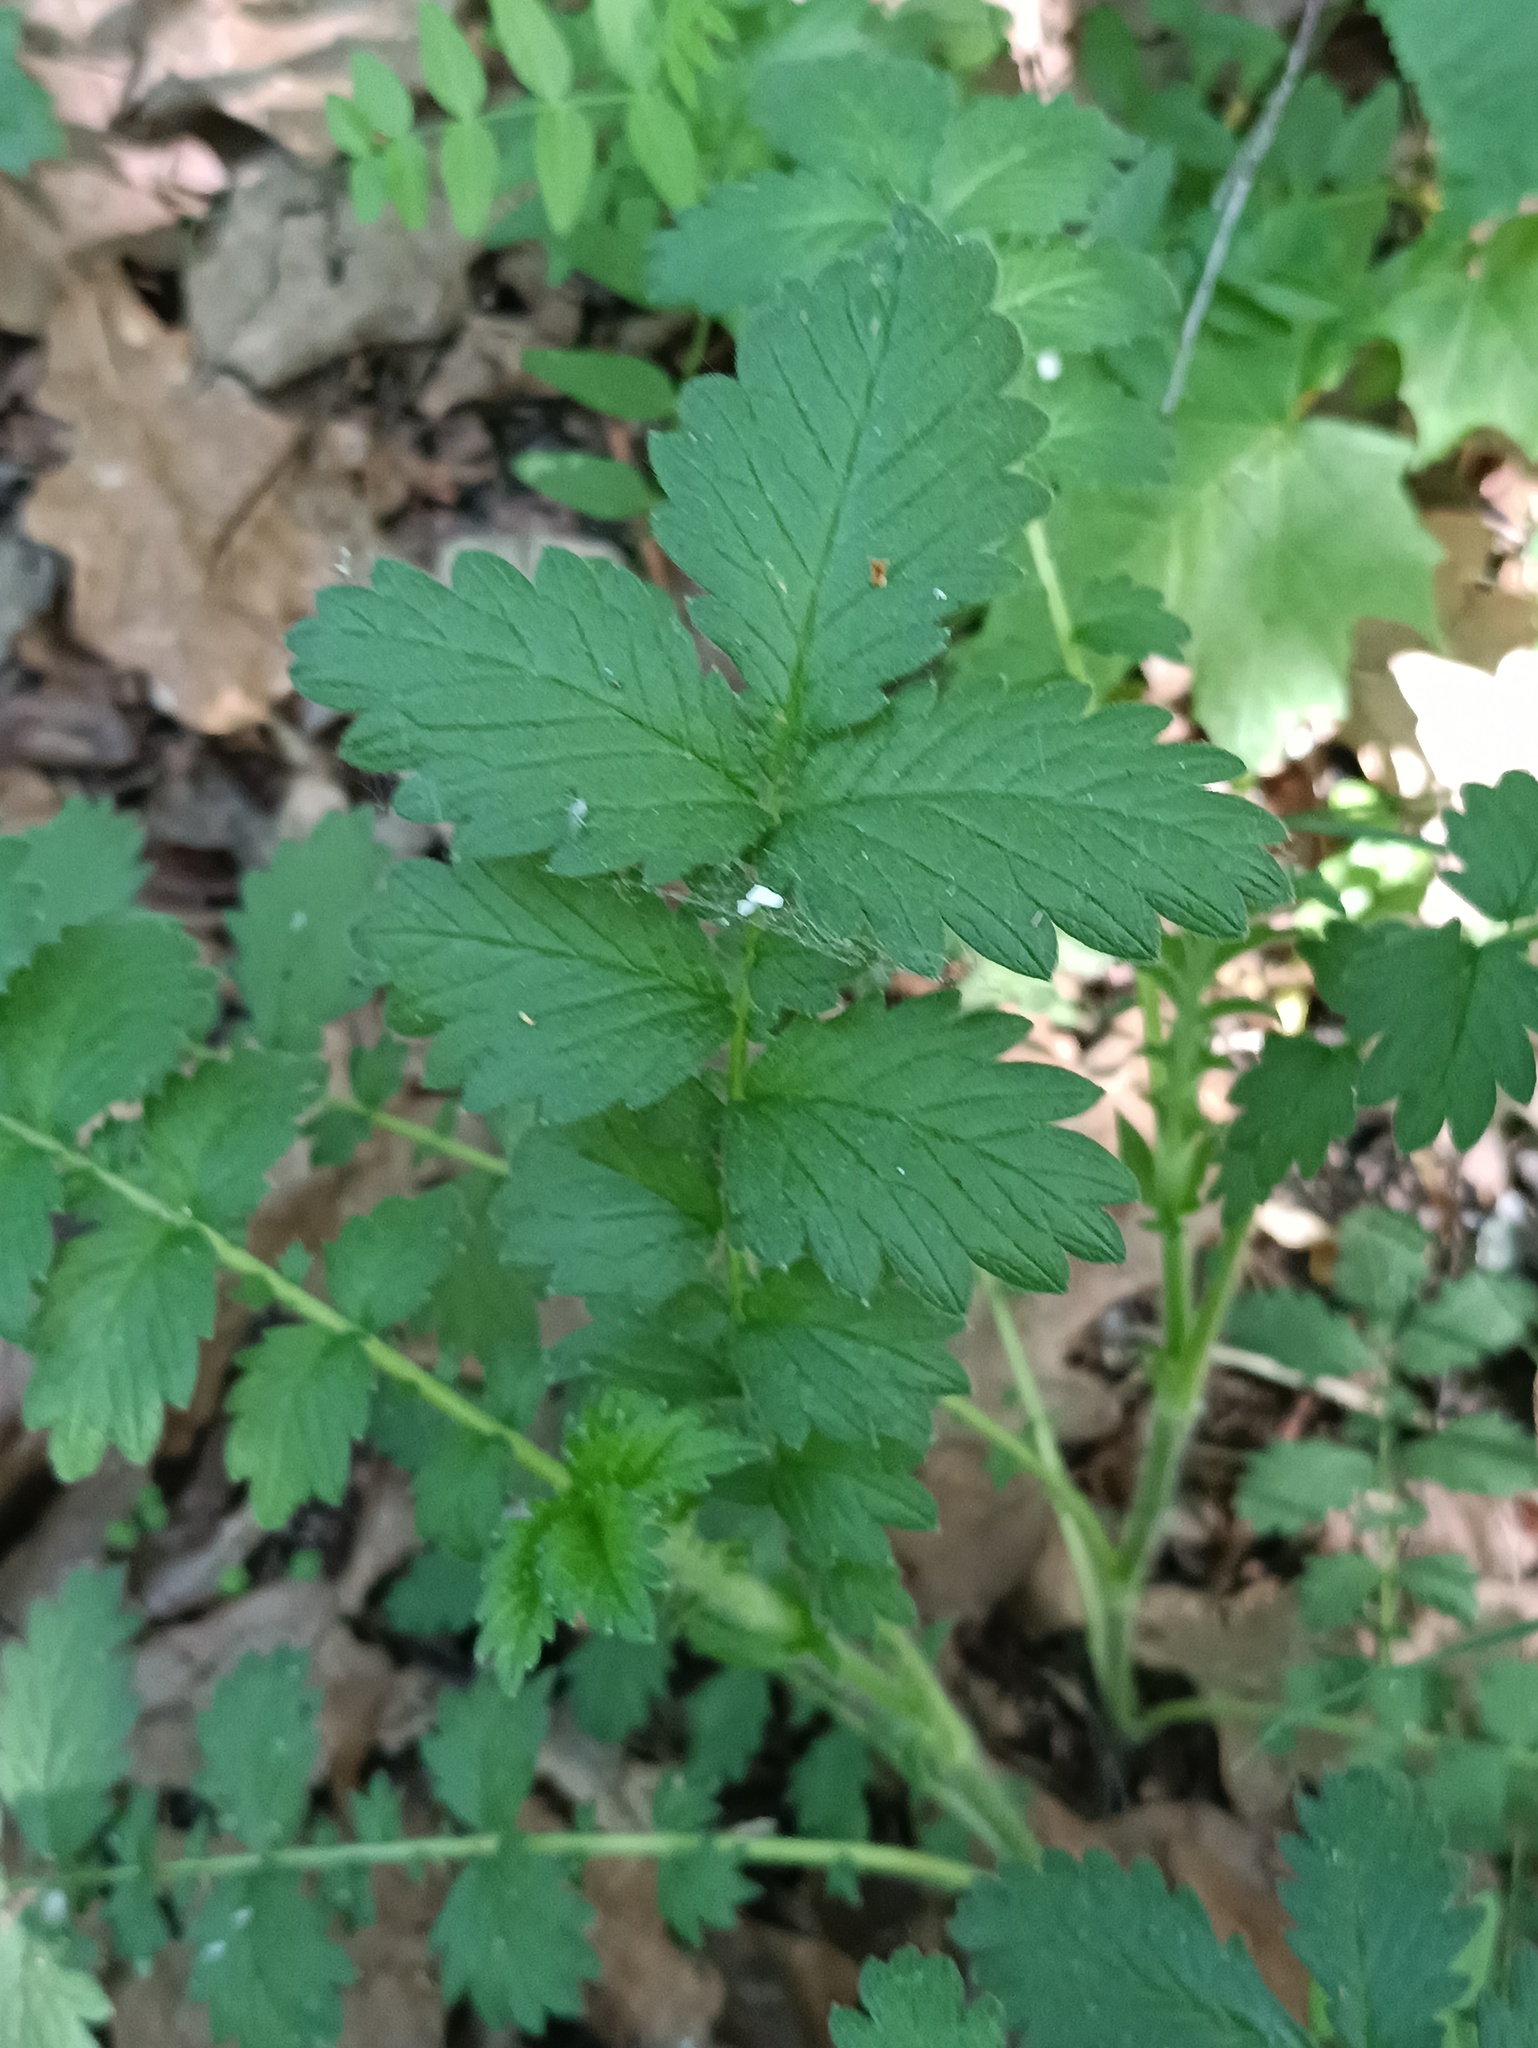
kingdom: Plantae
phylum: Tracheophyta
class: Magnoliopsida
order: Rosales
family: Rosaceae
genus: Agrimonia
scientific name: Agrimonia eupatoria
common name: Agrimony
